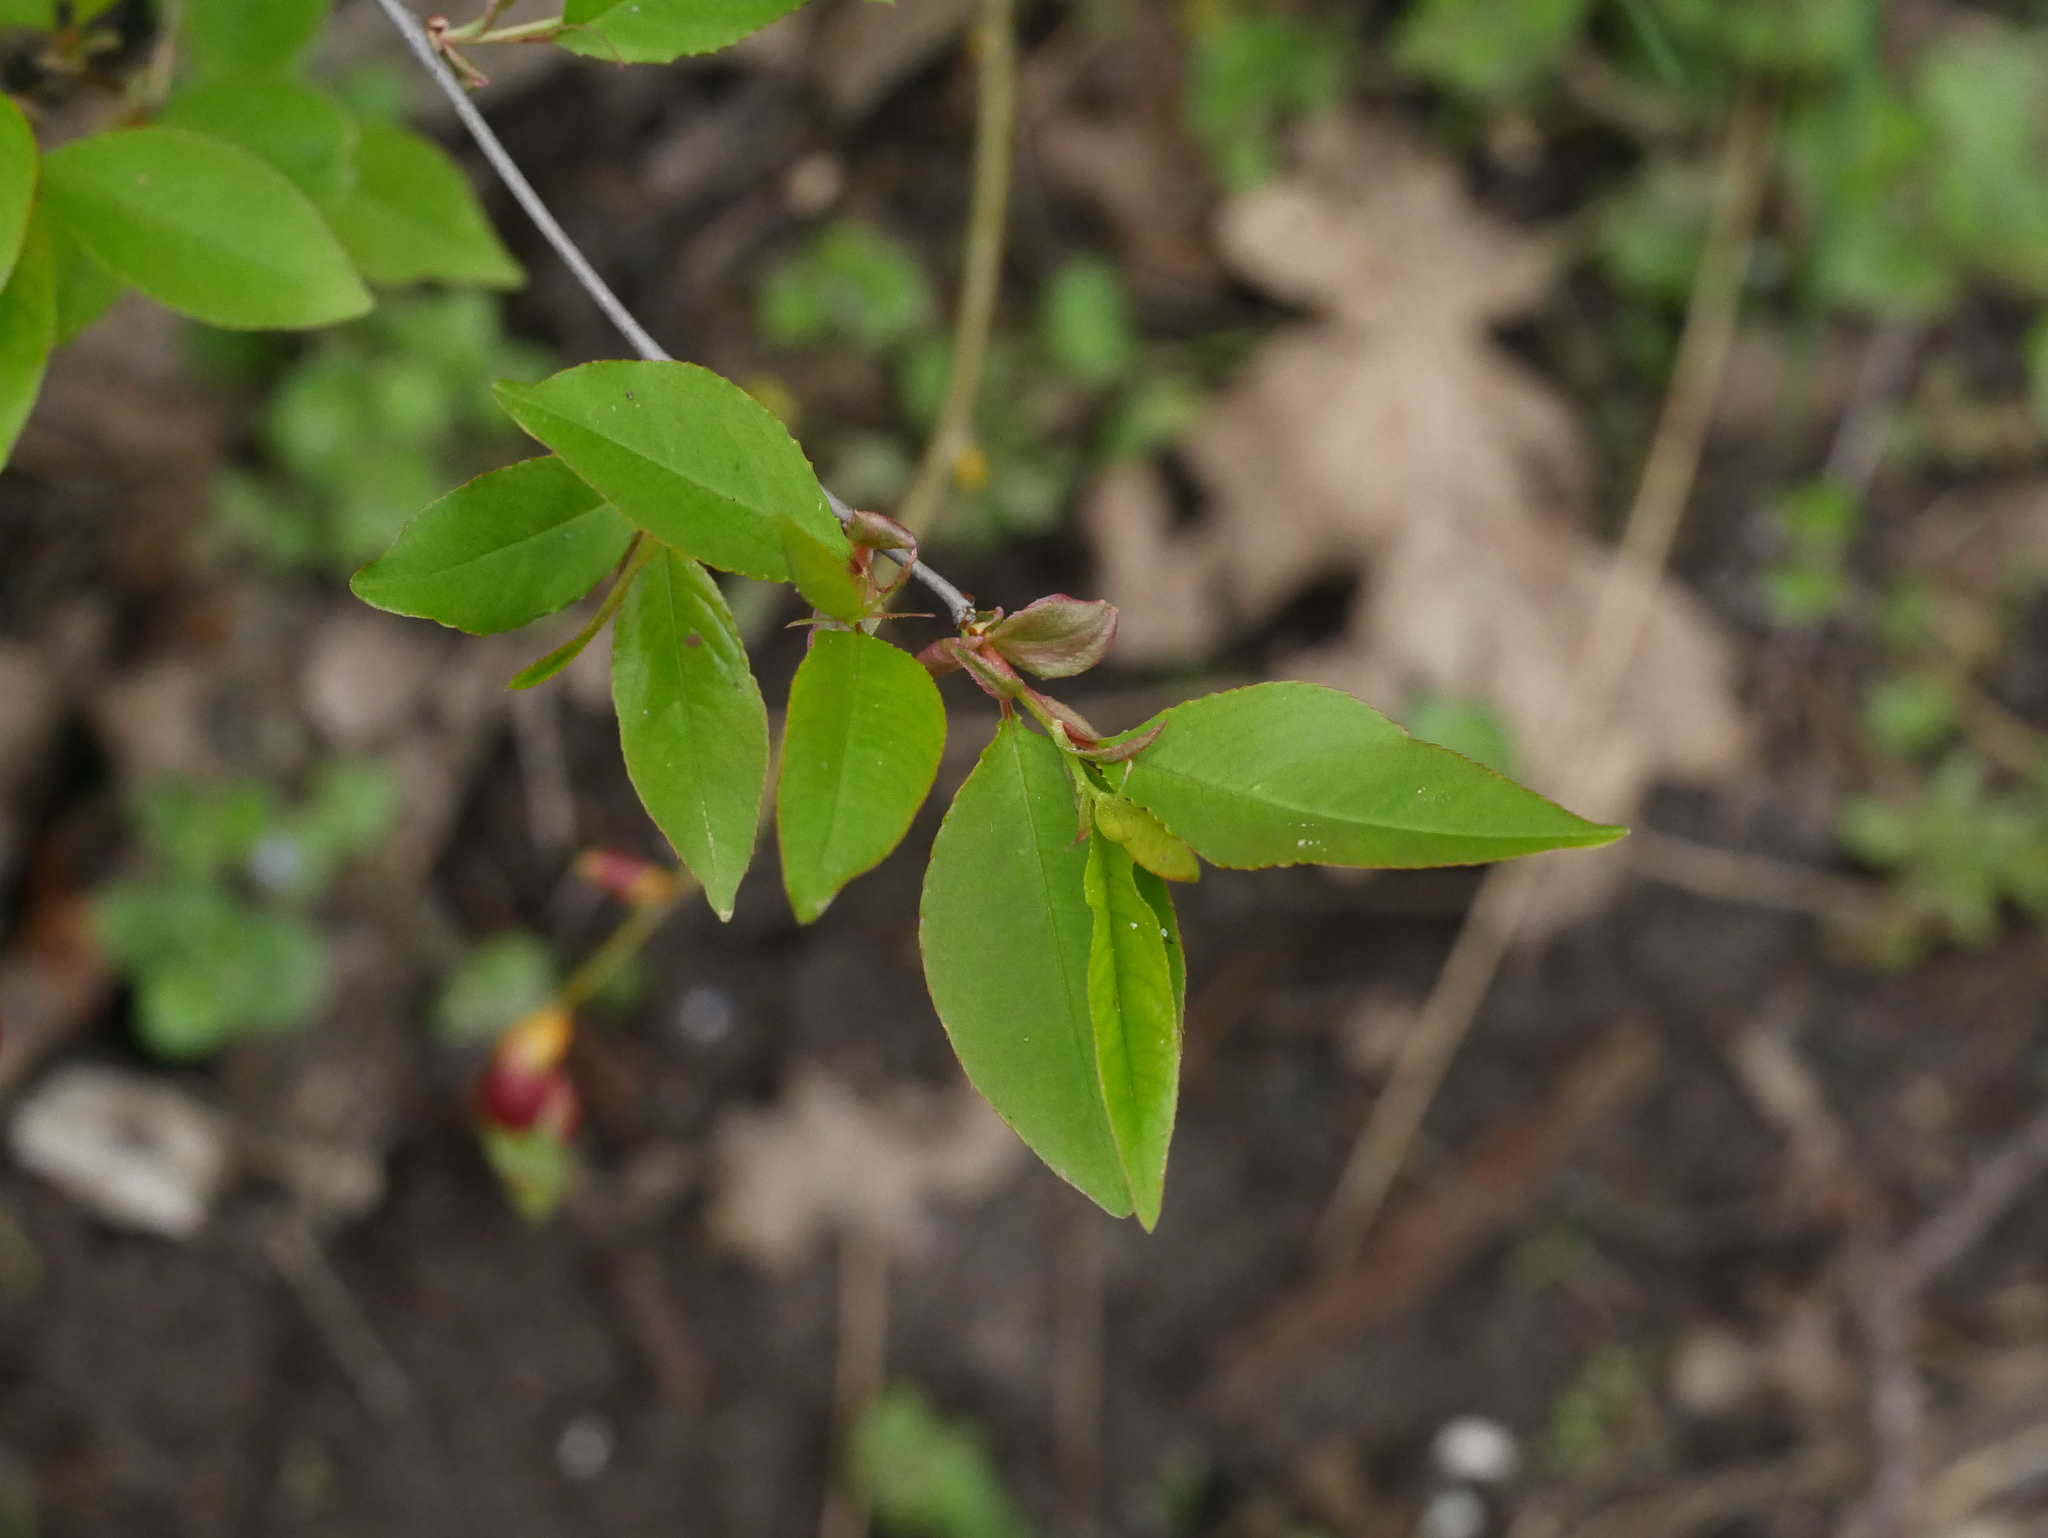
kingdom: Plantae
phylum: Tracheophyta
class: Magnoliopsida
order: Rosales
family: Rosaceae
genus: Prunus
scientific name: Prunus serotina
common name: Black cherry
